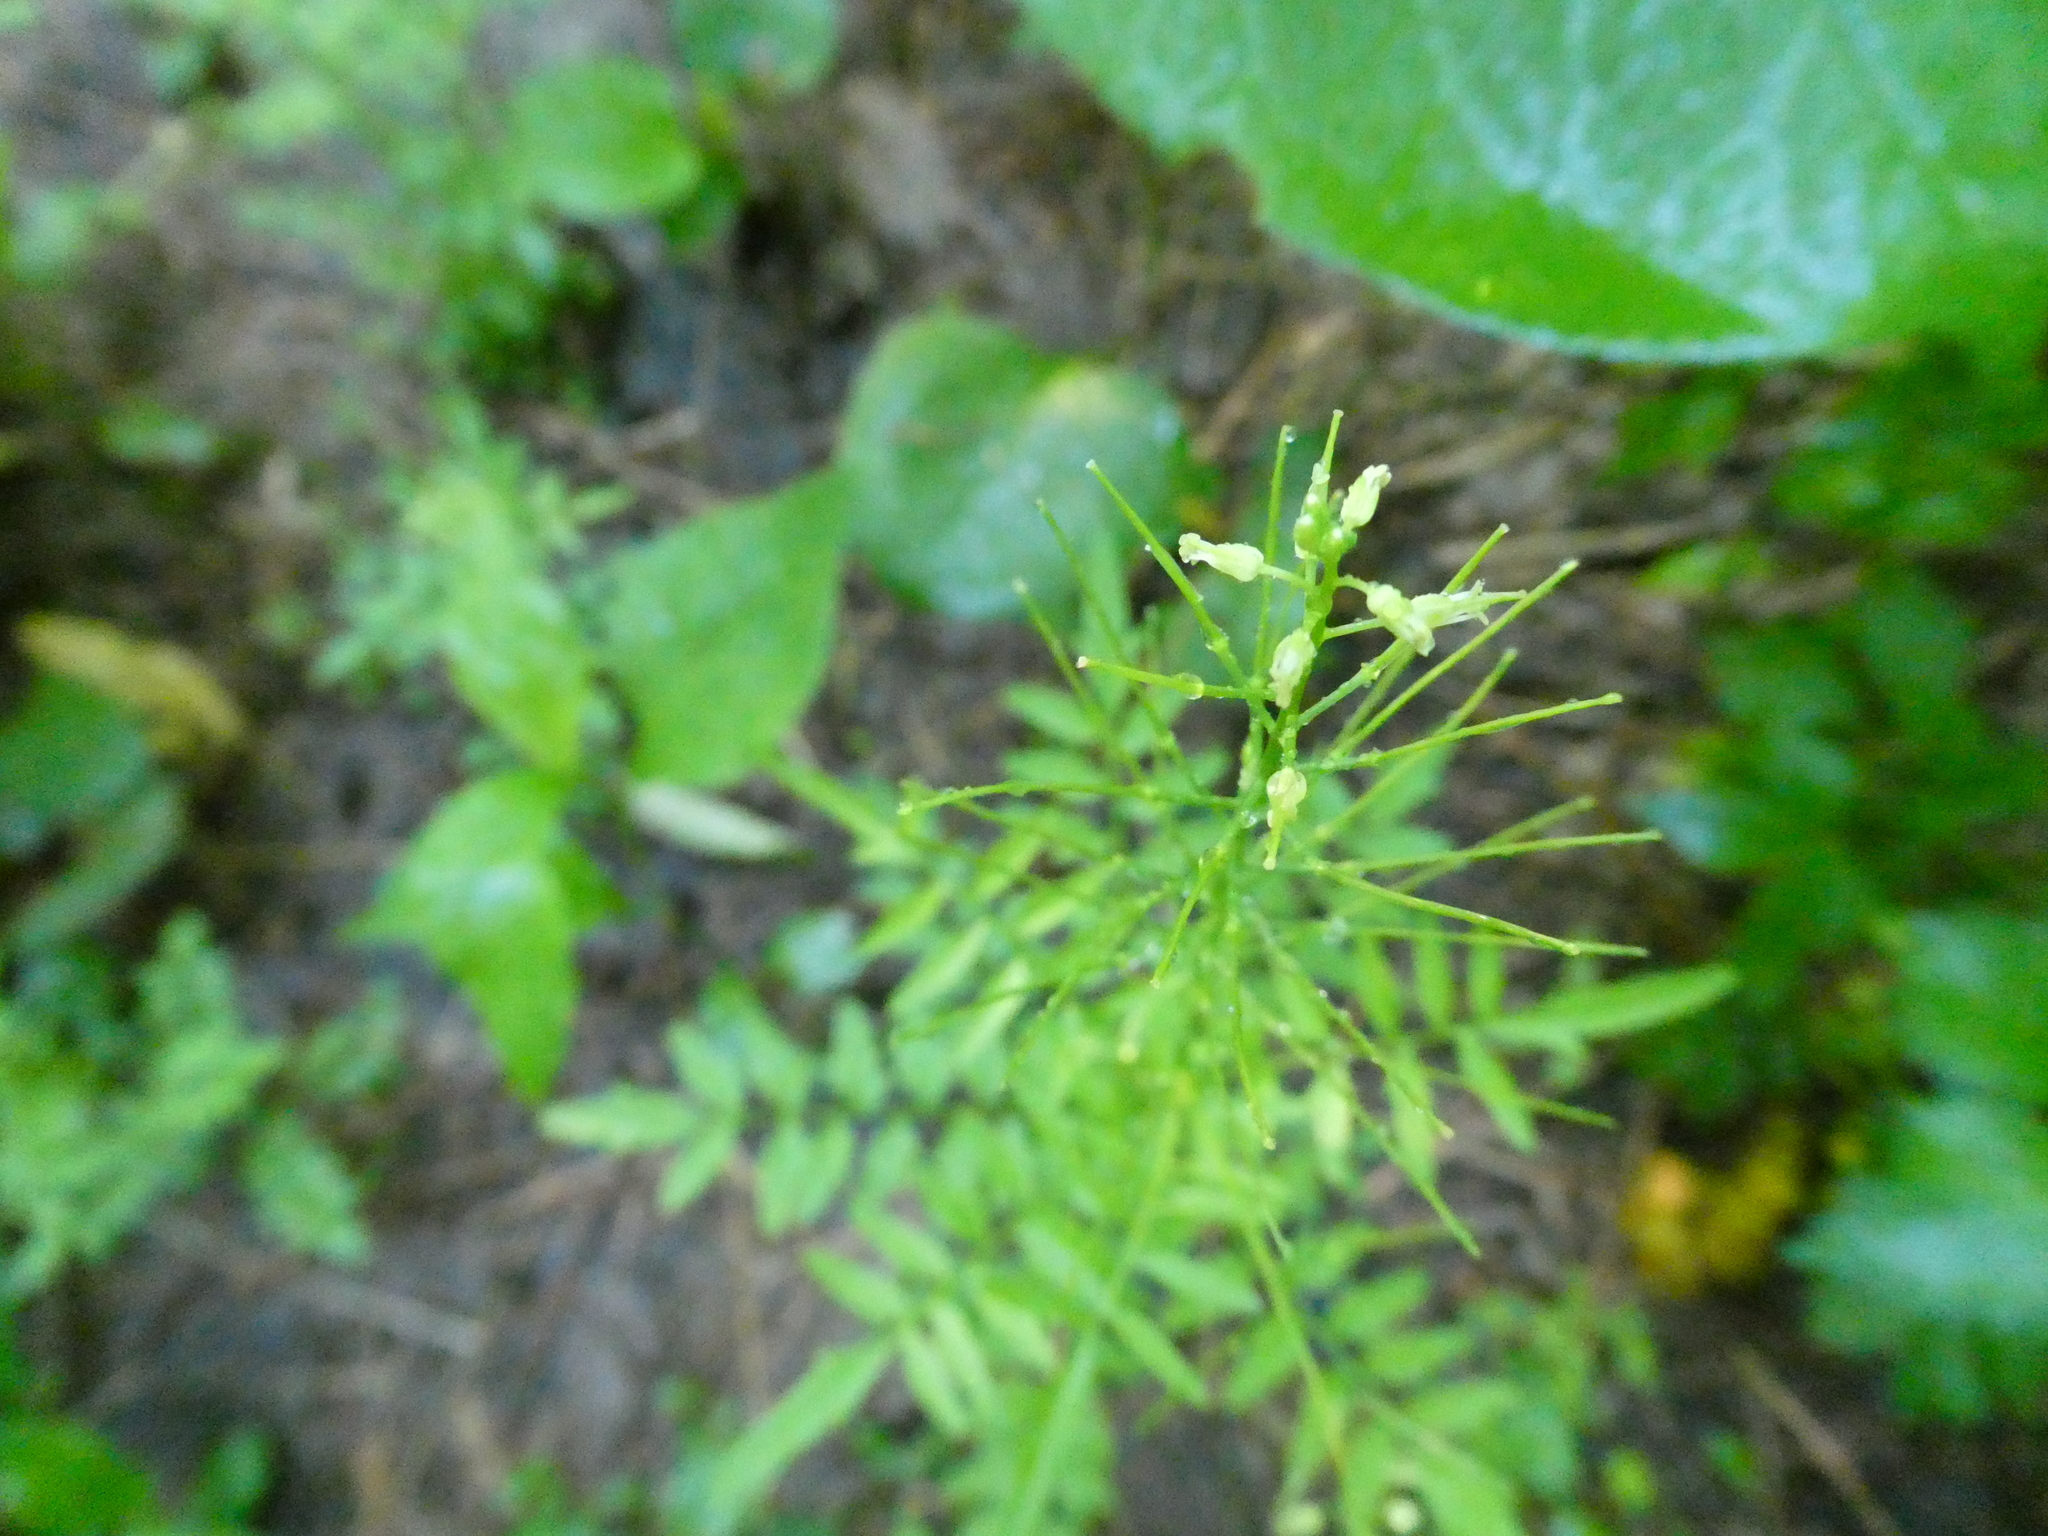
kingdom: Plantae
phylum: Tracheophyta
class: Magnoliopsida
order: Brassicales
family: Brassicaceae
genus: Cardamine
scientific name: Cardamine impatiens
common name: Narrow-leaved bitter-cress
